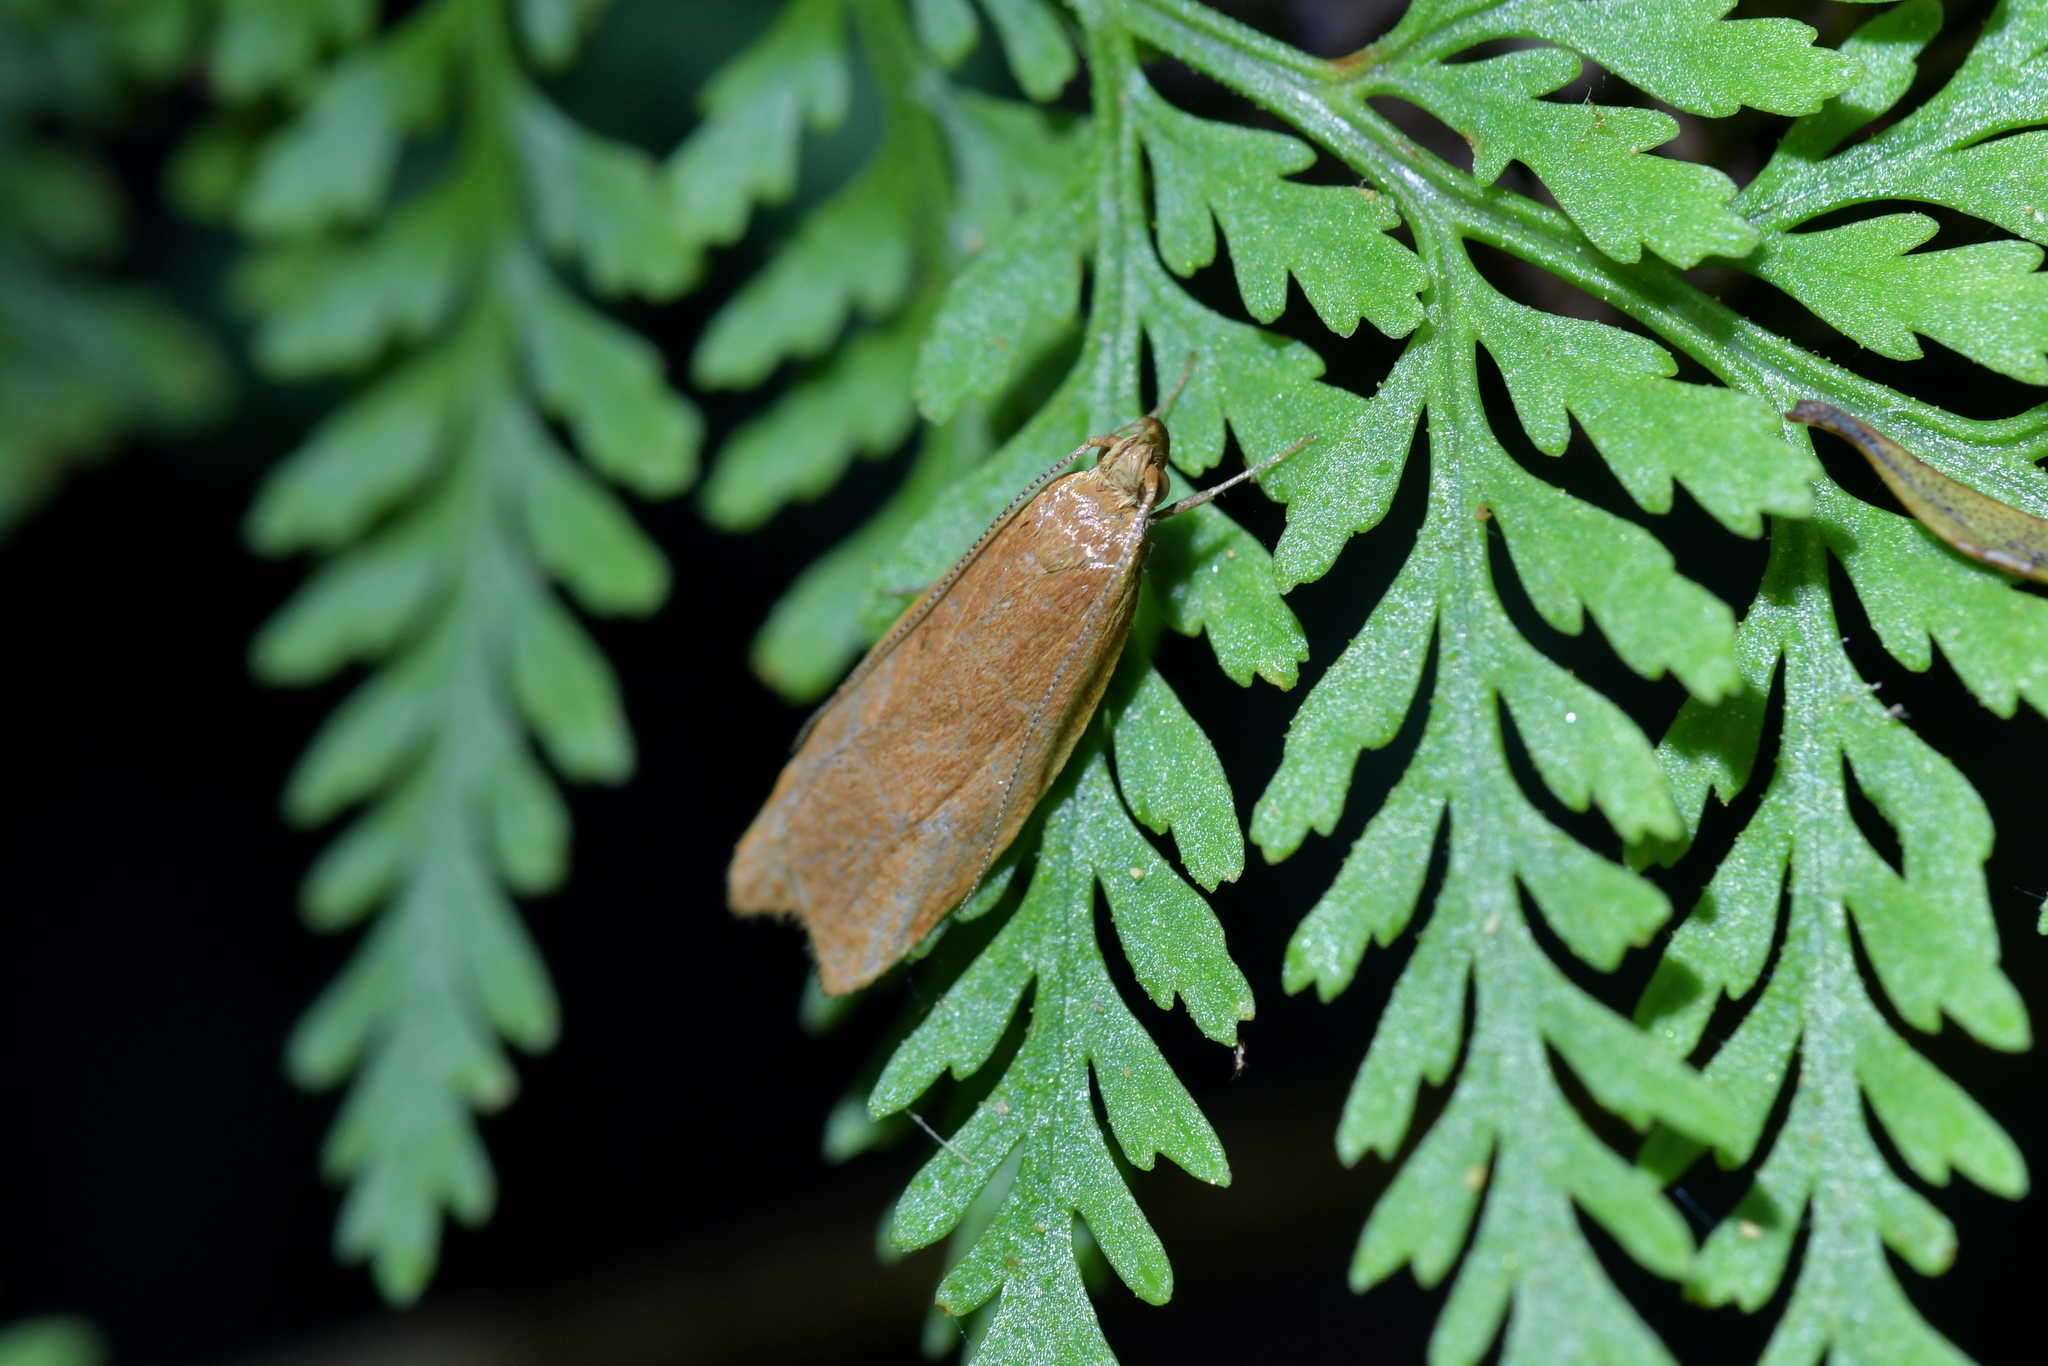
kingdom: Animalia
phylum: Arthropoda
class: Insecta
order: Lepidoptera
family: Oecophoridae
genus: Gymnobathra
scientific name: Gymnobathra sarcoxantha
